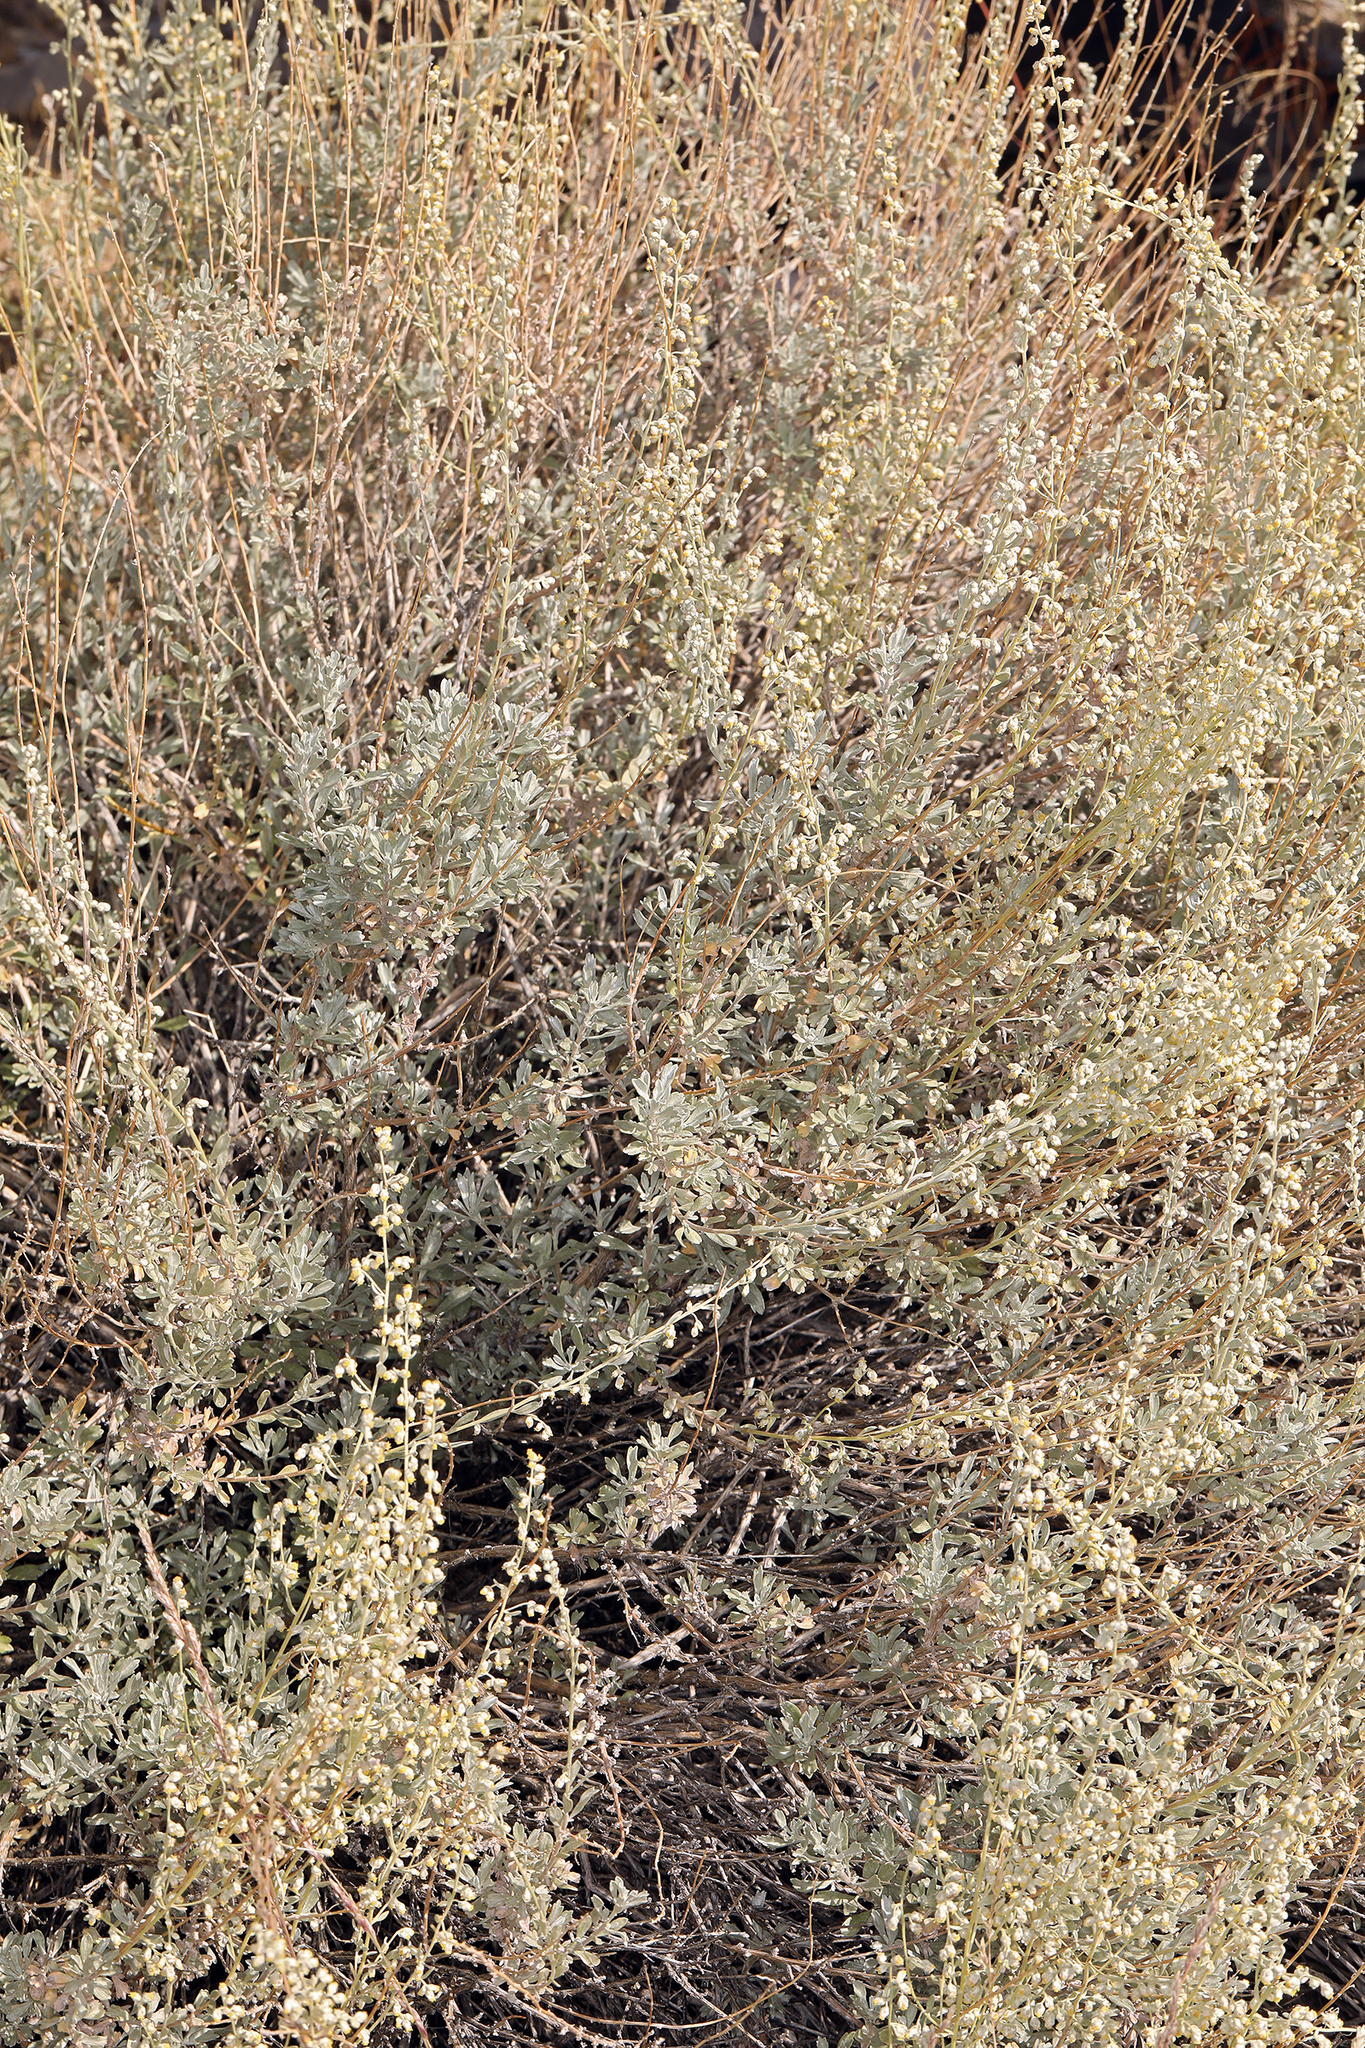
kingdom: Plantae
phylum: Tracheophyta
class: Magnoliopsida
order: Asterales
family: Asteraceae
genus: Artemisia
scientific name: Artemisia bigelovii
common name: Bigelow sagebrush
